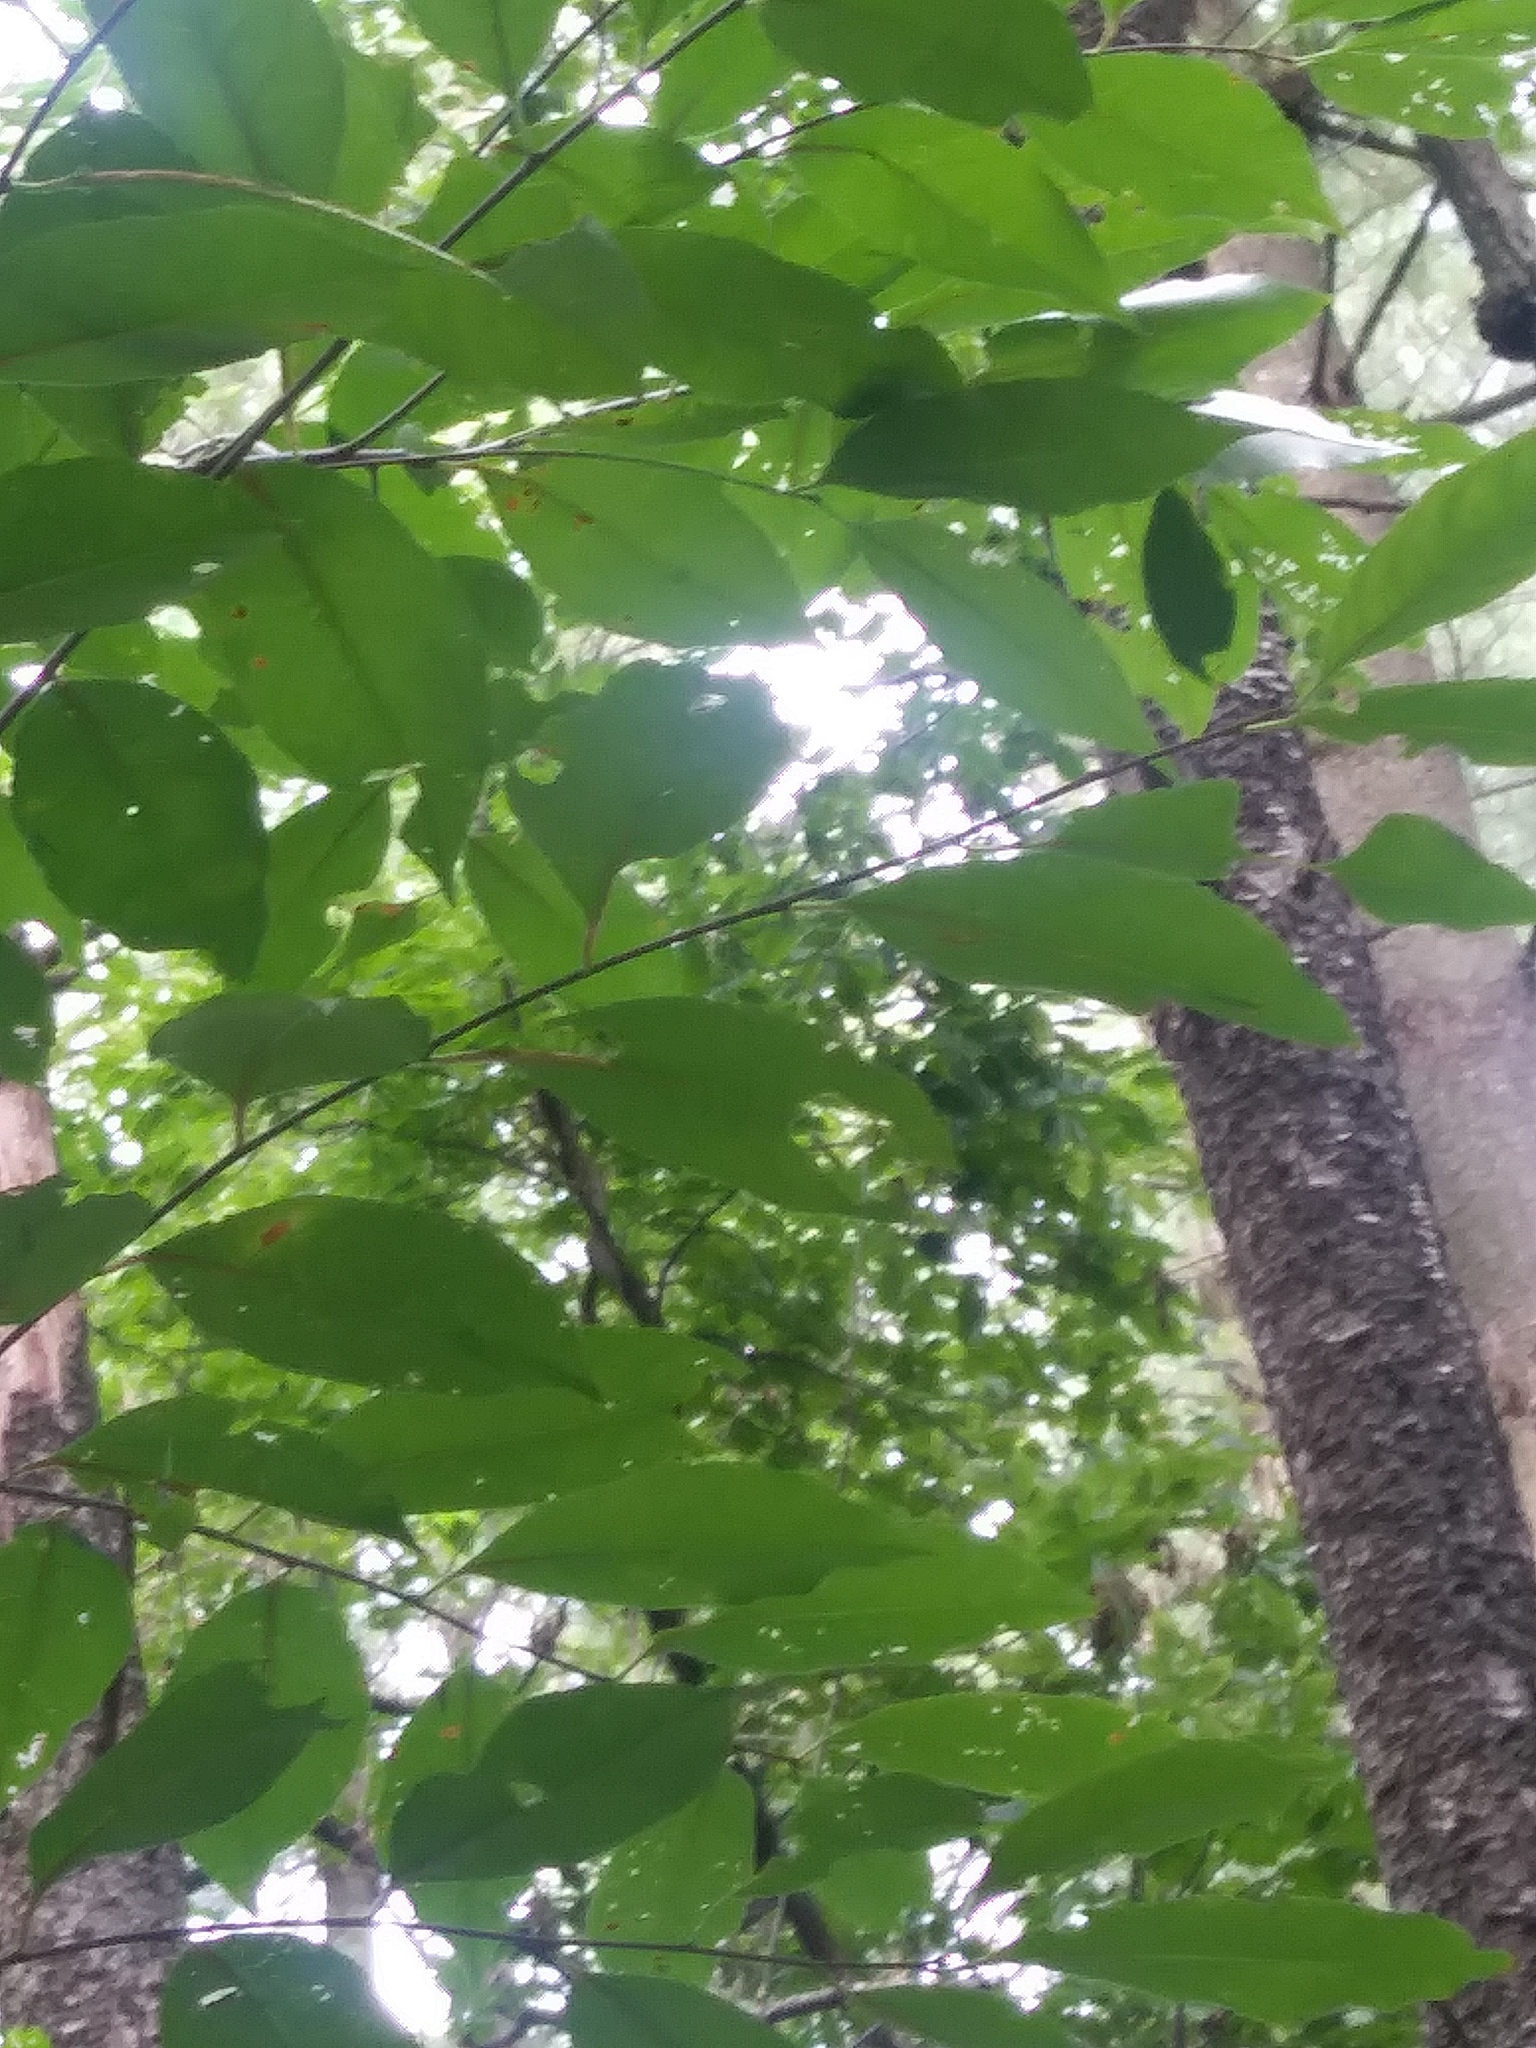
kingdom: Plantae
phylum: Tracheophyta
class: Magnoliopsida
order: Rosales
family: Rosaceae
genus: Prunus
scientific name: Prunus serotina
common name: Black cherry
